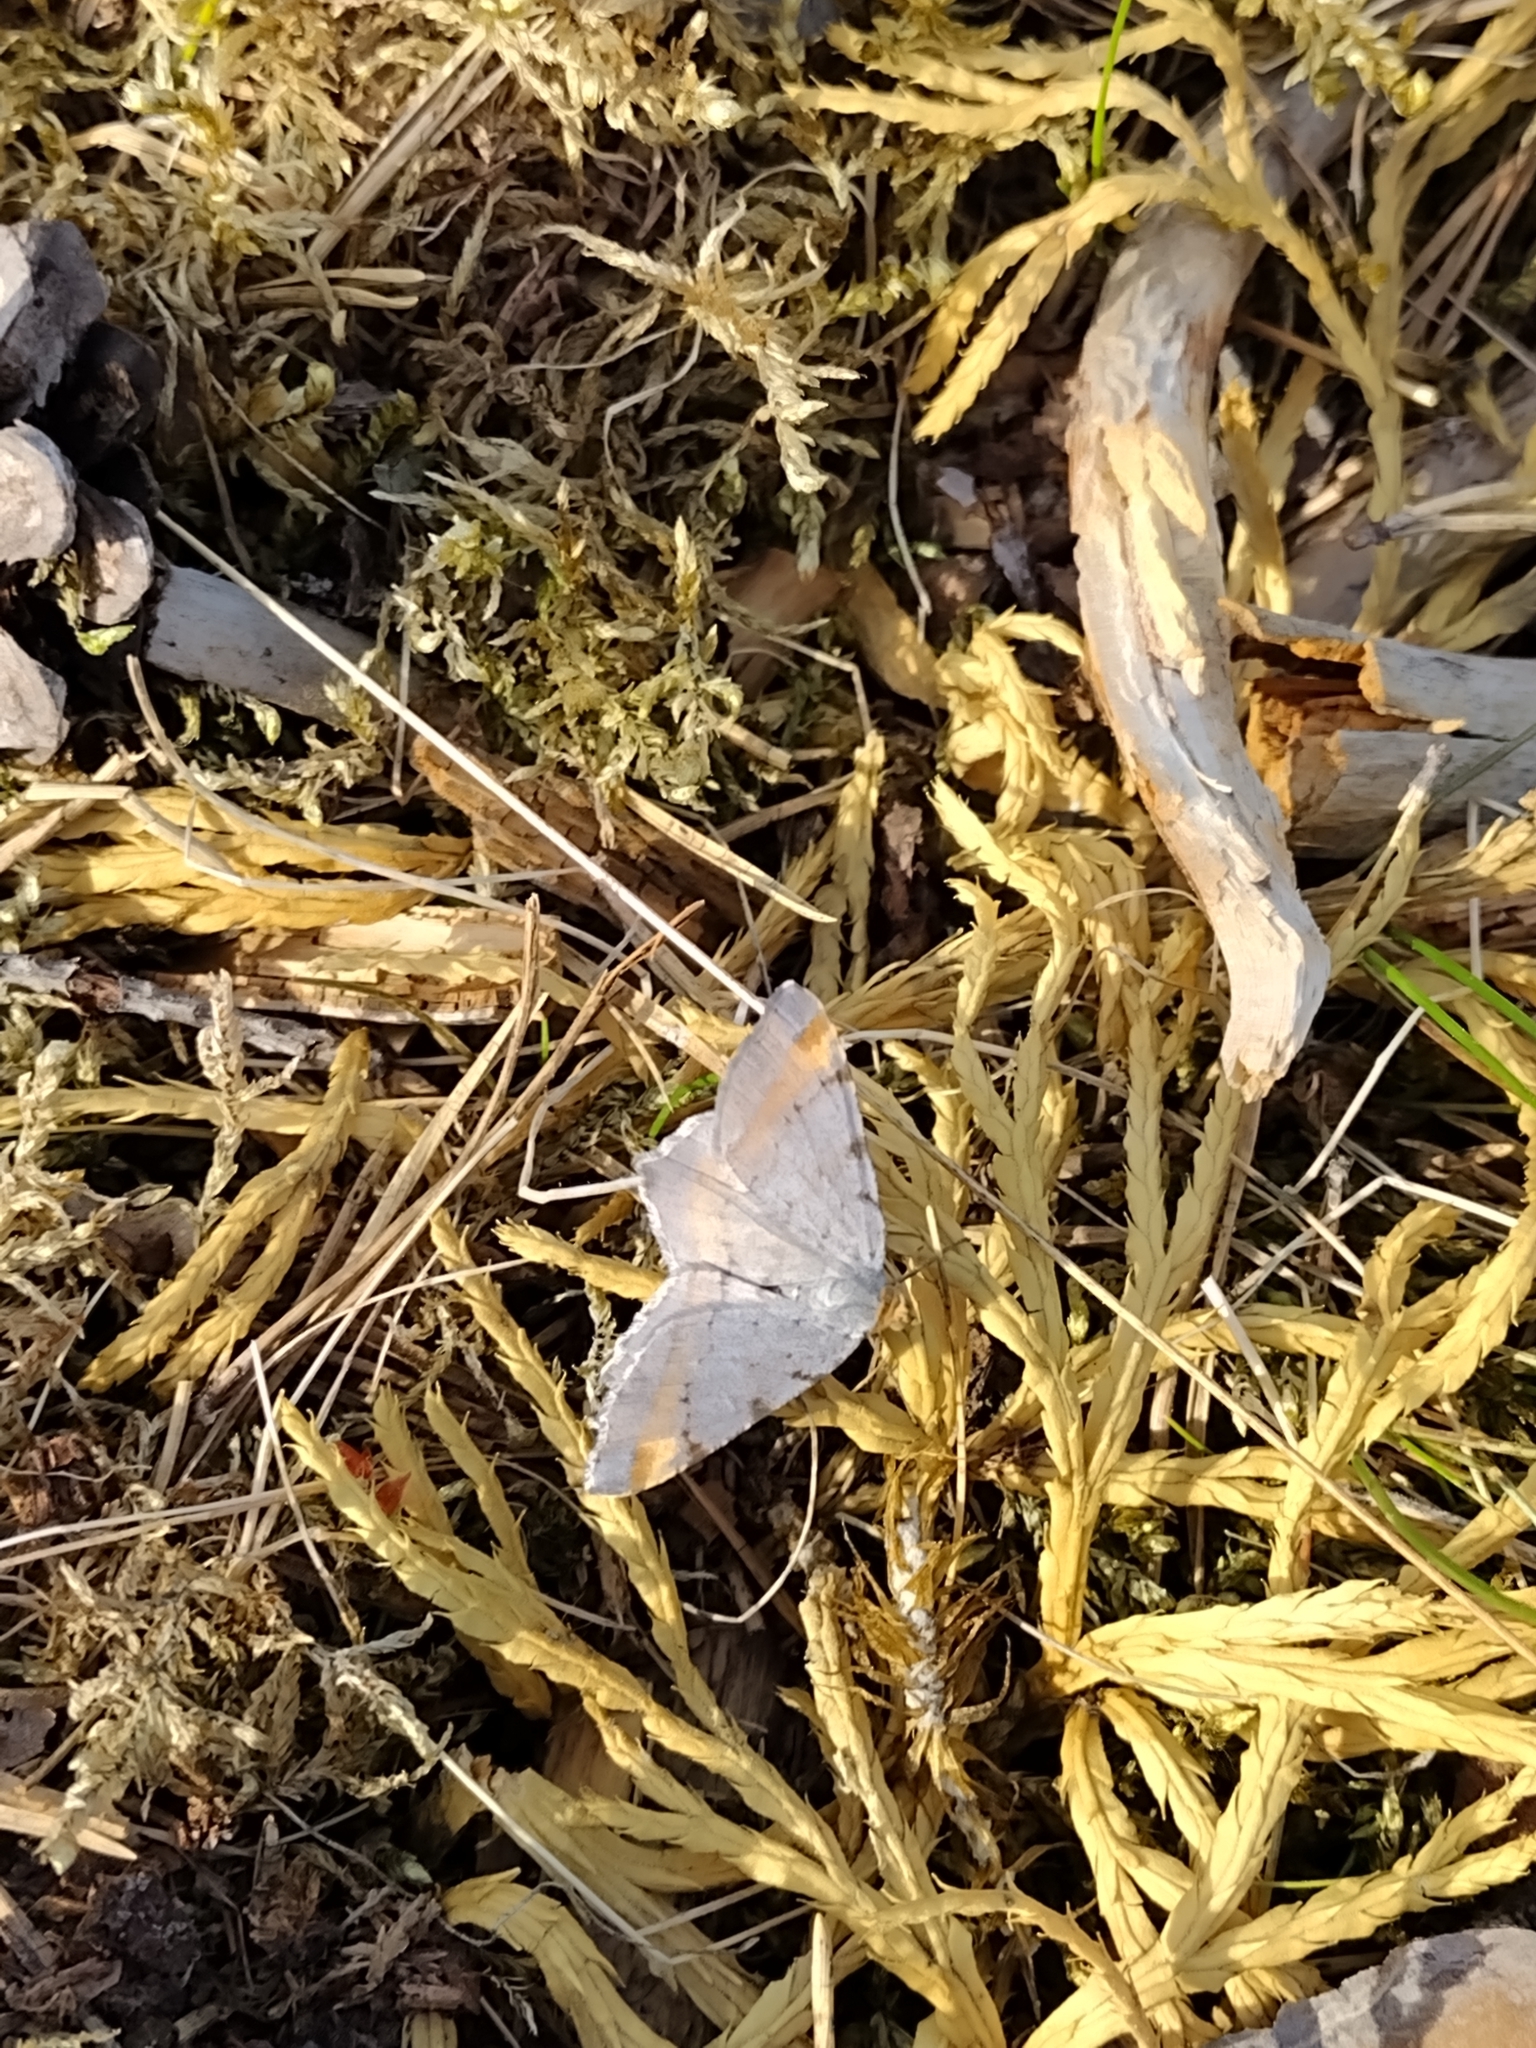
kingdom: Animalia
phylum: Arthropoda
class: Insecta
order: Lepidoptera
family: Geometridae
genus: Macaria
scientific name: Macaria liturata
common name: Tawny-barred angle
